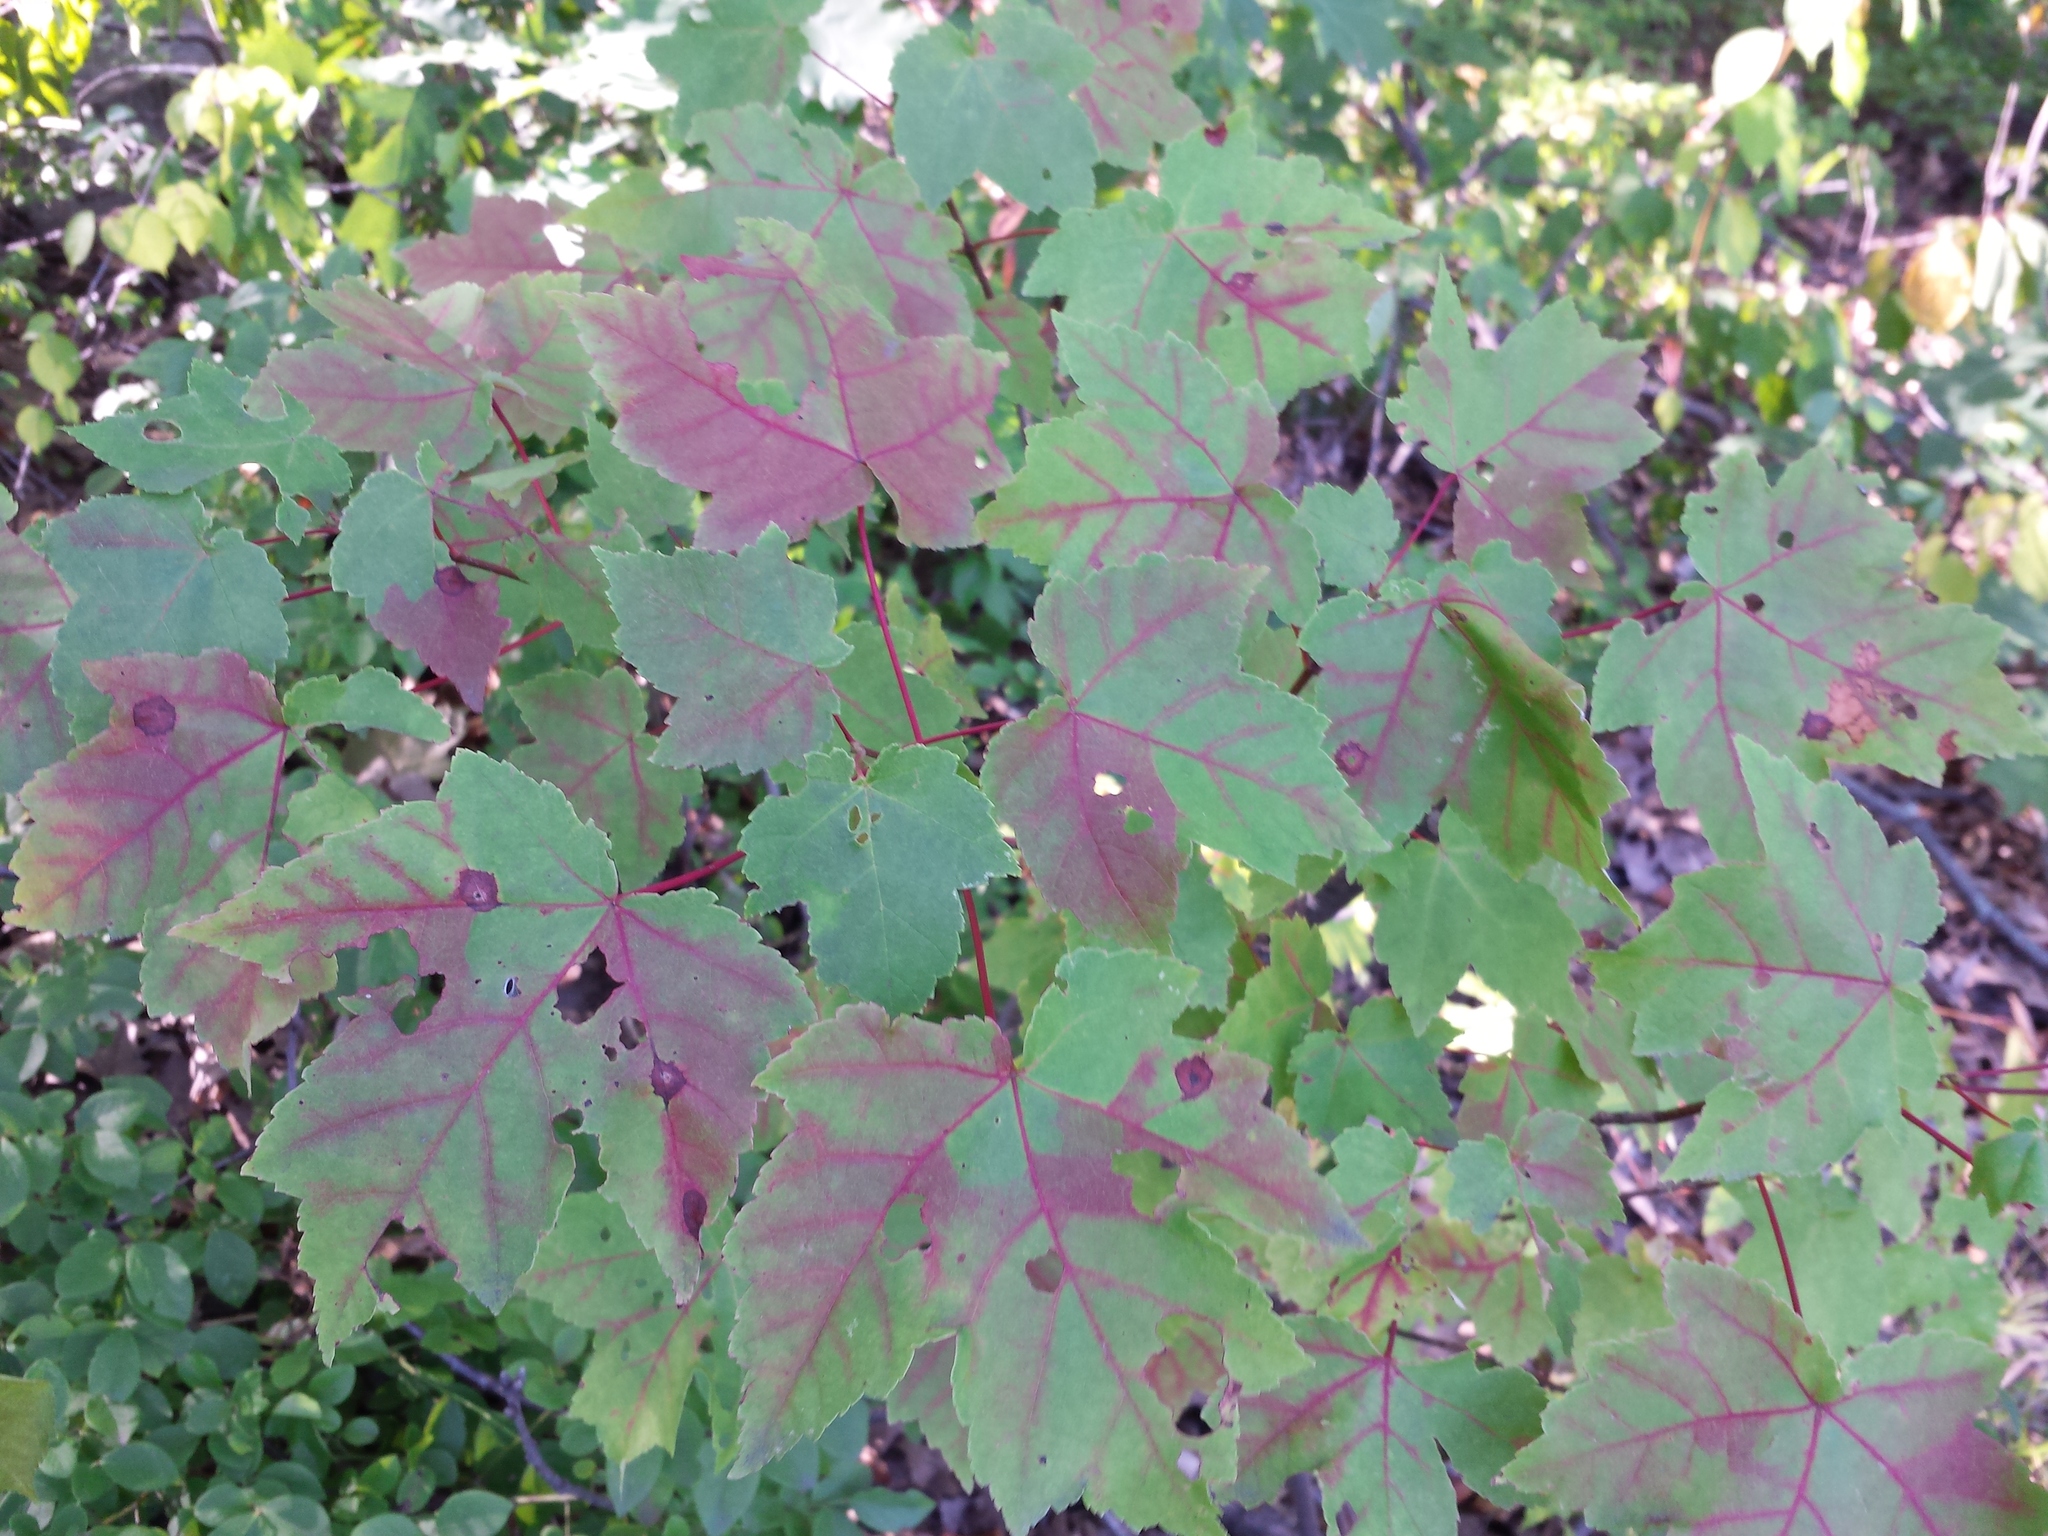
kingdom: Plantae
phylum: Tracheophyta
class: Magnoliopsida
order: Sapindales
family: Sapindaceae
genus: Acer
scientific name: Acer rubrum
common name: Red maple
